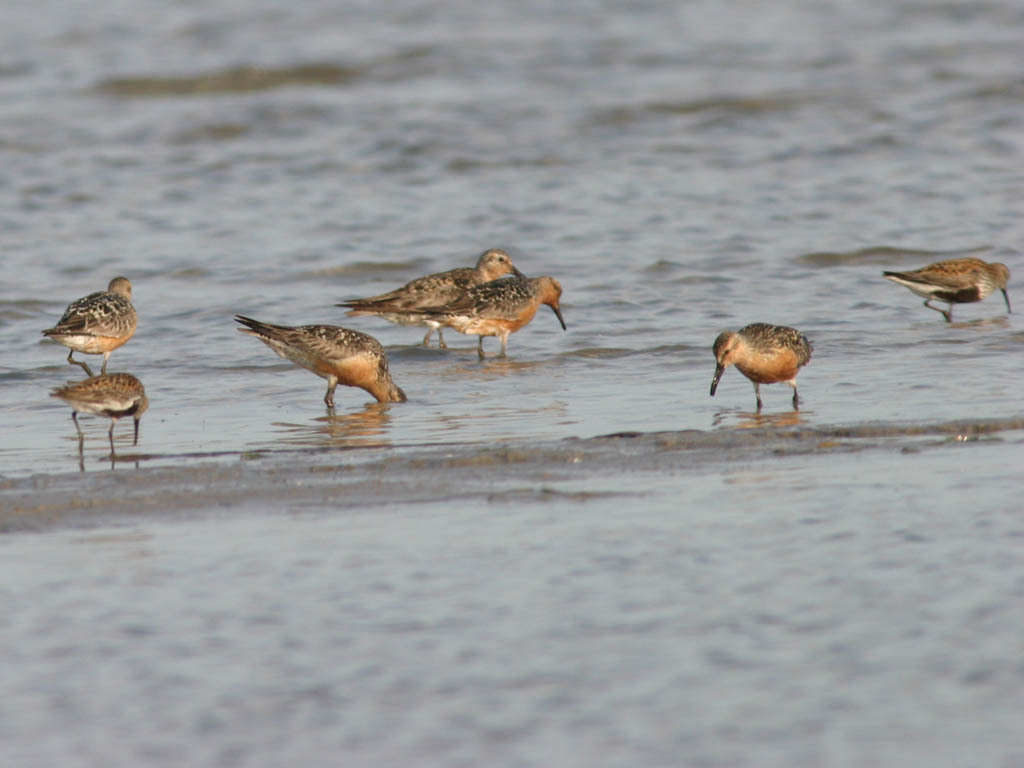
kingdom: Animalia
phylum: Chordata
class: Aves
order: Charadriiformes
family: Scolopacidae
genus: Calidris
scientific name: Calidris canutus
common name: Red knot
